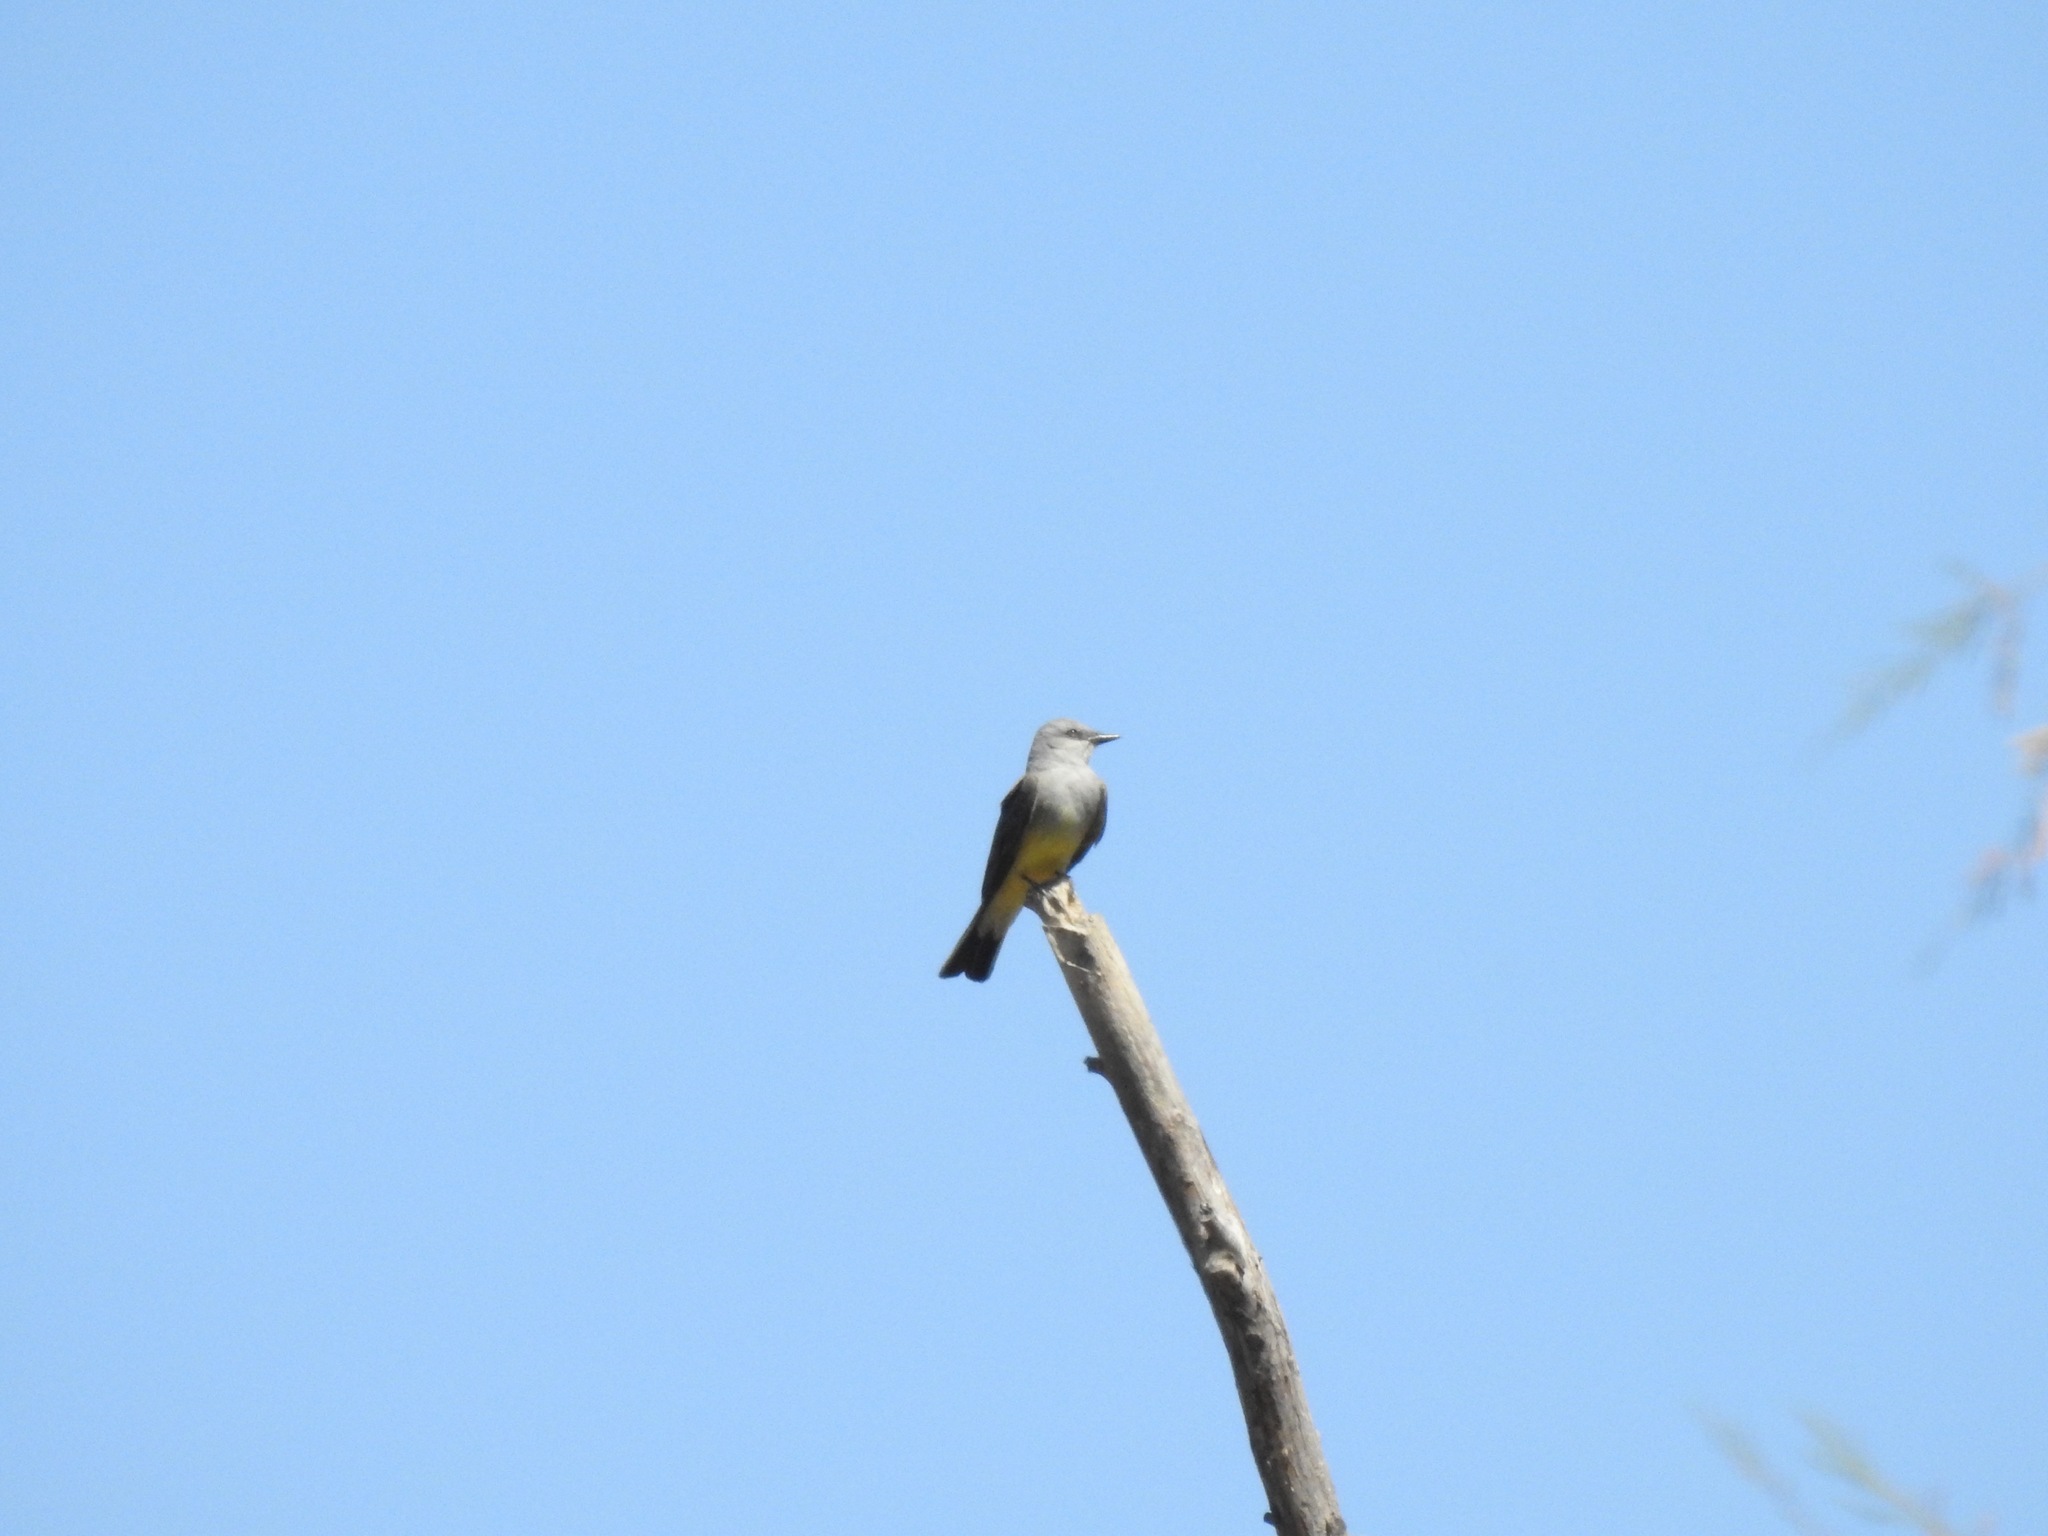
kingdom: Animalia
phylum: Chordata
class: Aves
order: Passeriformes
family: Tyrannidae
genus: Tyrannus
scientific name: Tyrannus verticalis
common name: Western kingbird
